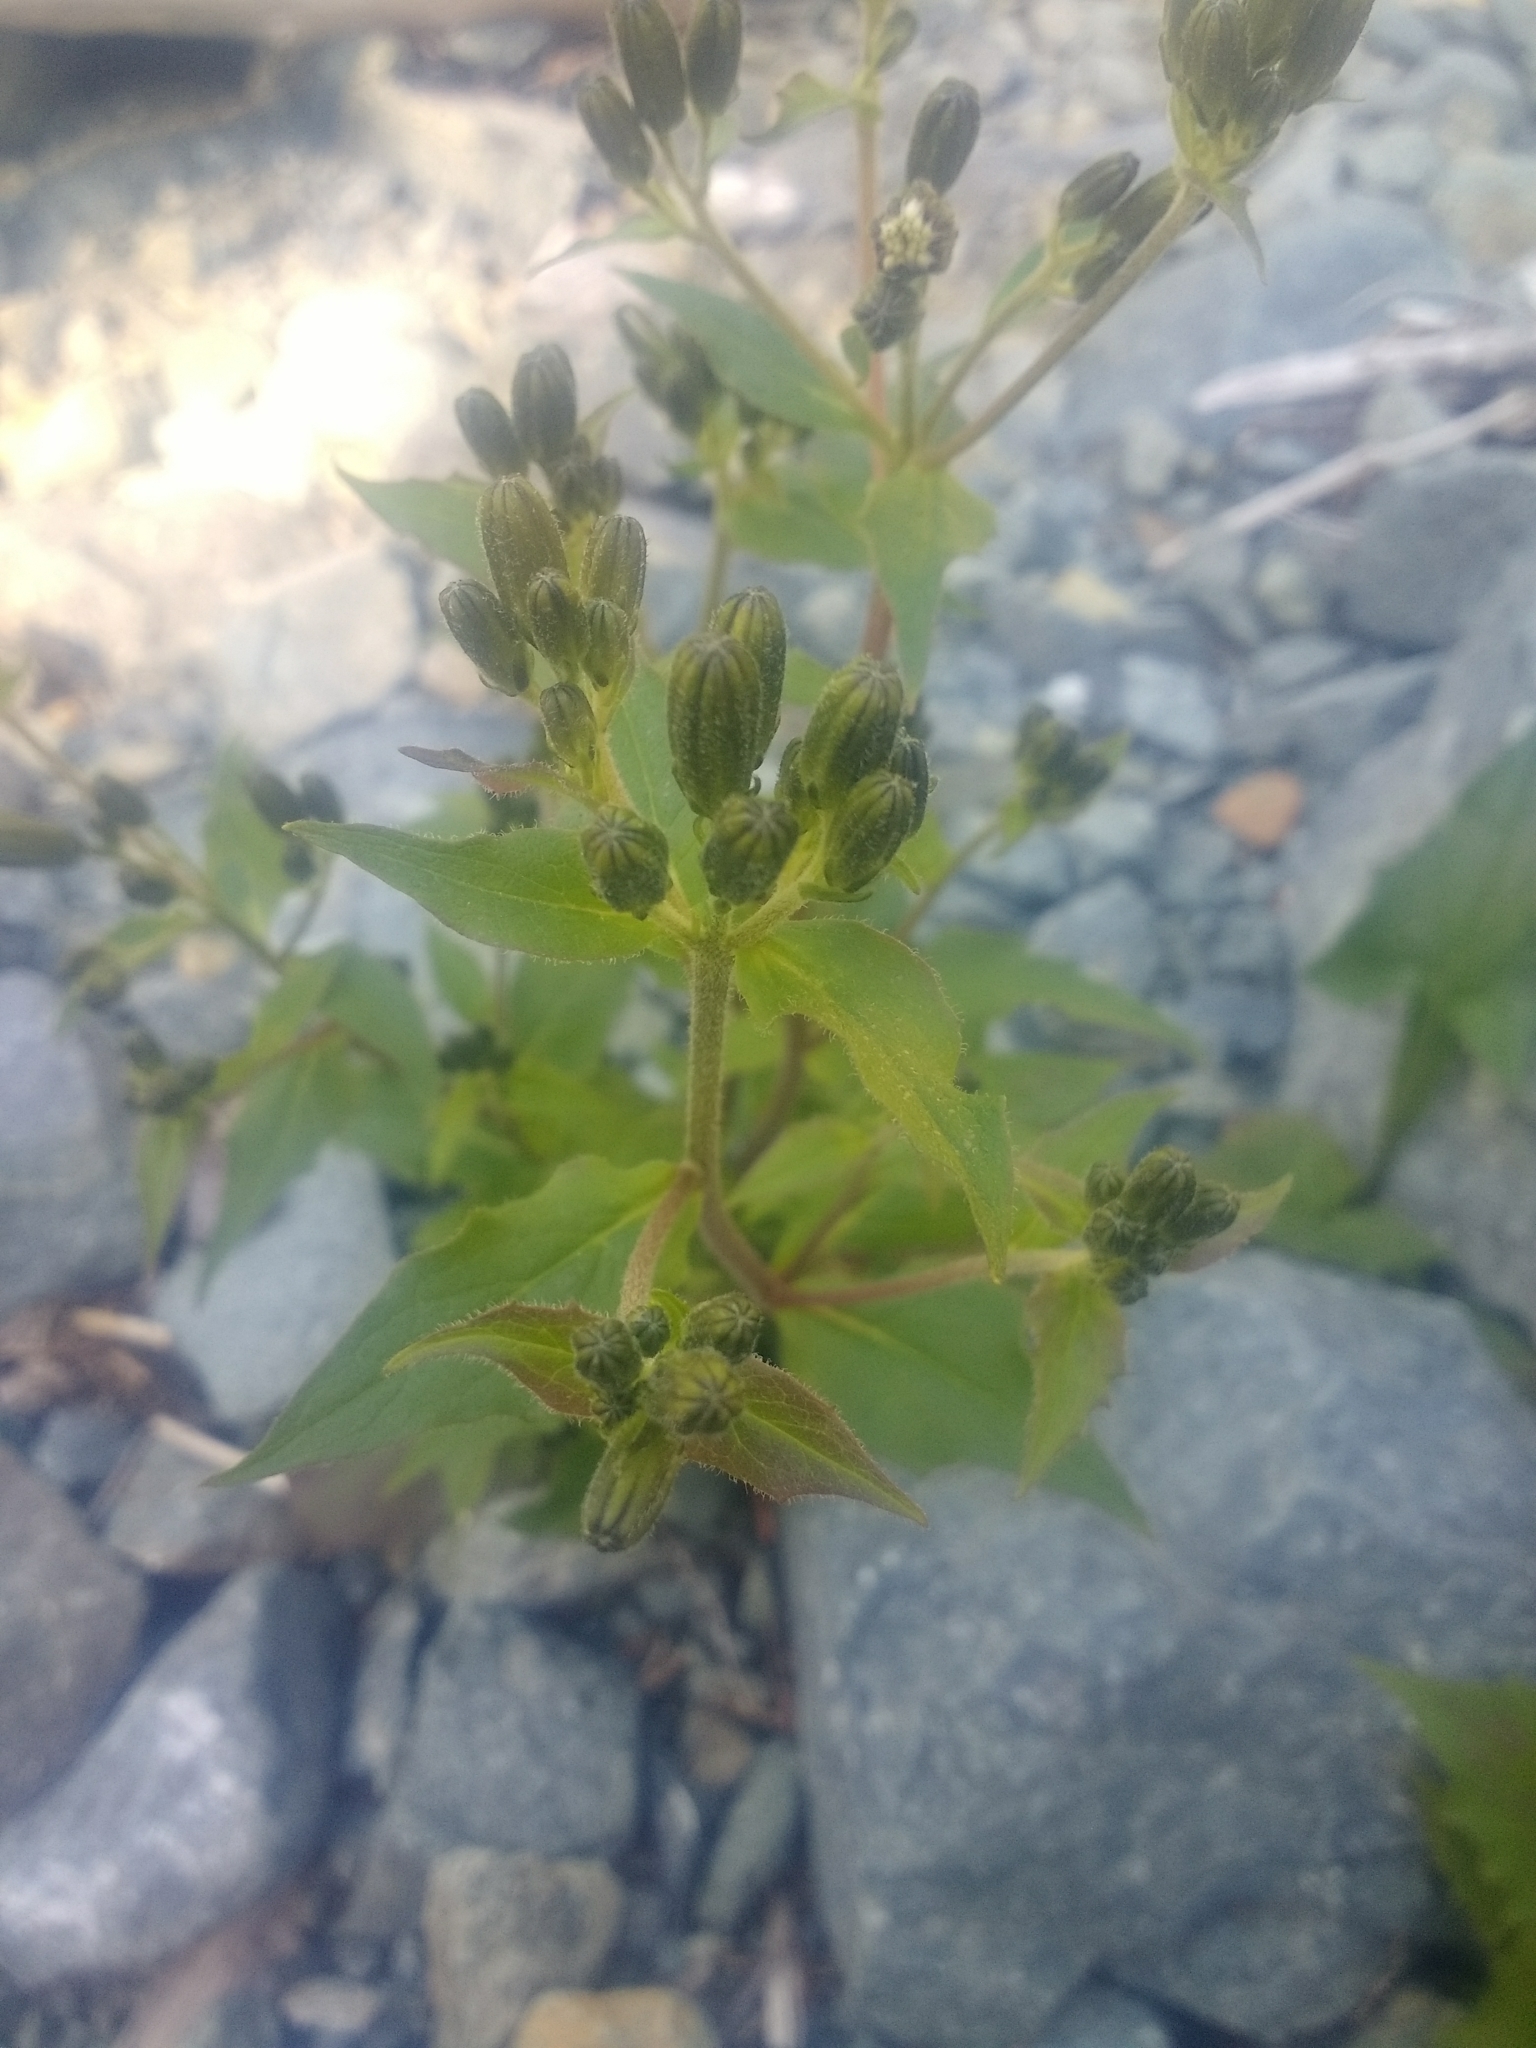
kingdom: Plantae
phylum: Tracheophyta
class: Magnoliopsida
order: Asterales
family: Asteraceae
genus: Nabalus
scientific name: Nabalus hastatus
